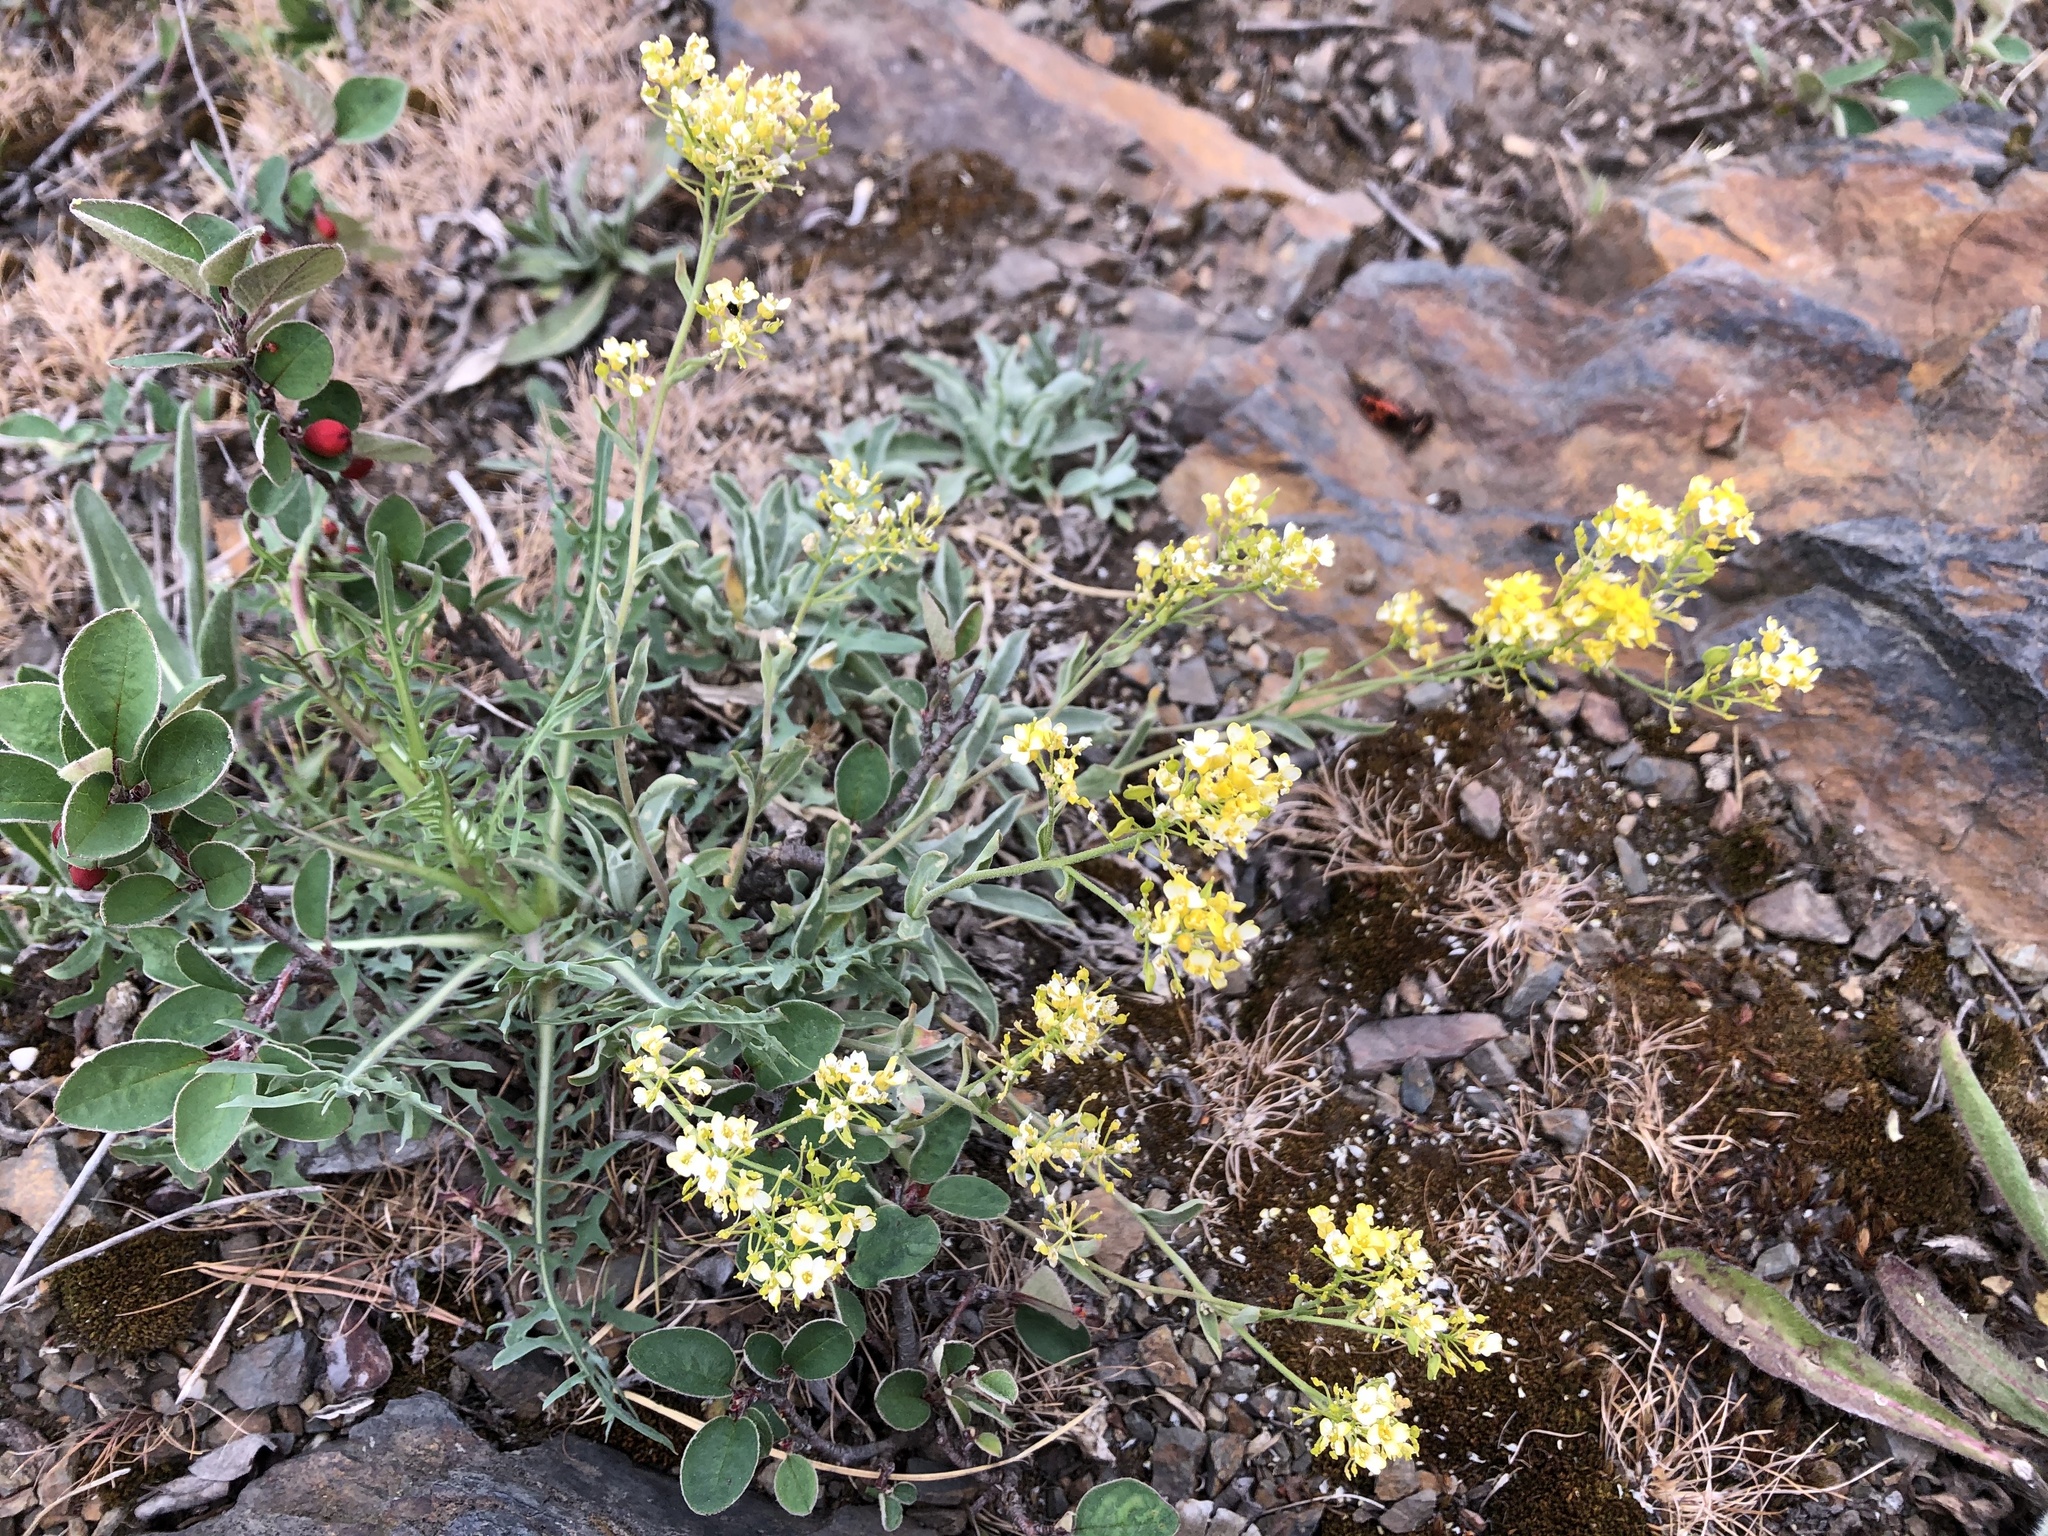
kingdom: Plantae
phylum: Tracheophyta
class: Magnoliopsida
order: Brassicales
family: Brassicaceae
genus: Aurinia
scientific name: Aurinia saxatilis
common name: Golden-tuft alyssum
